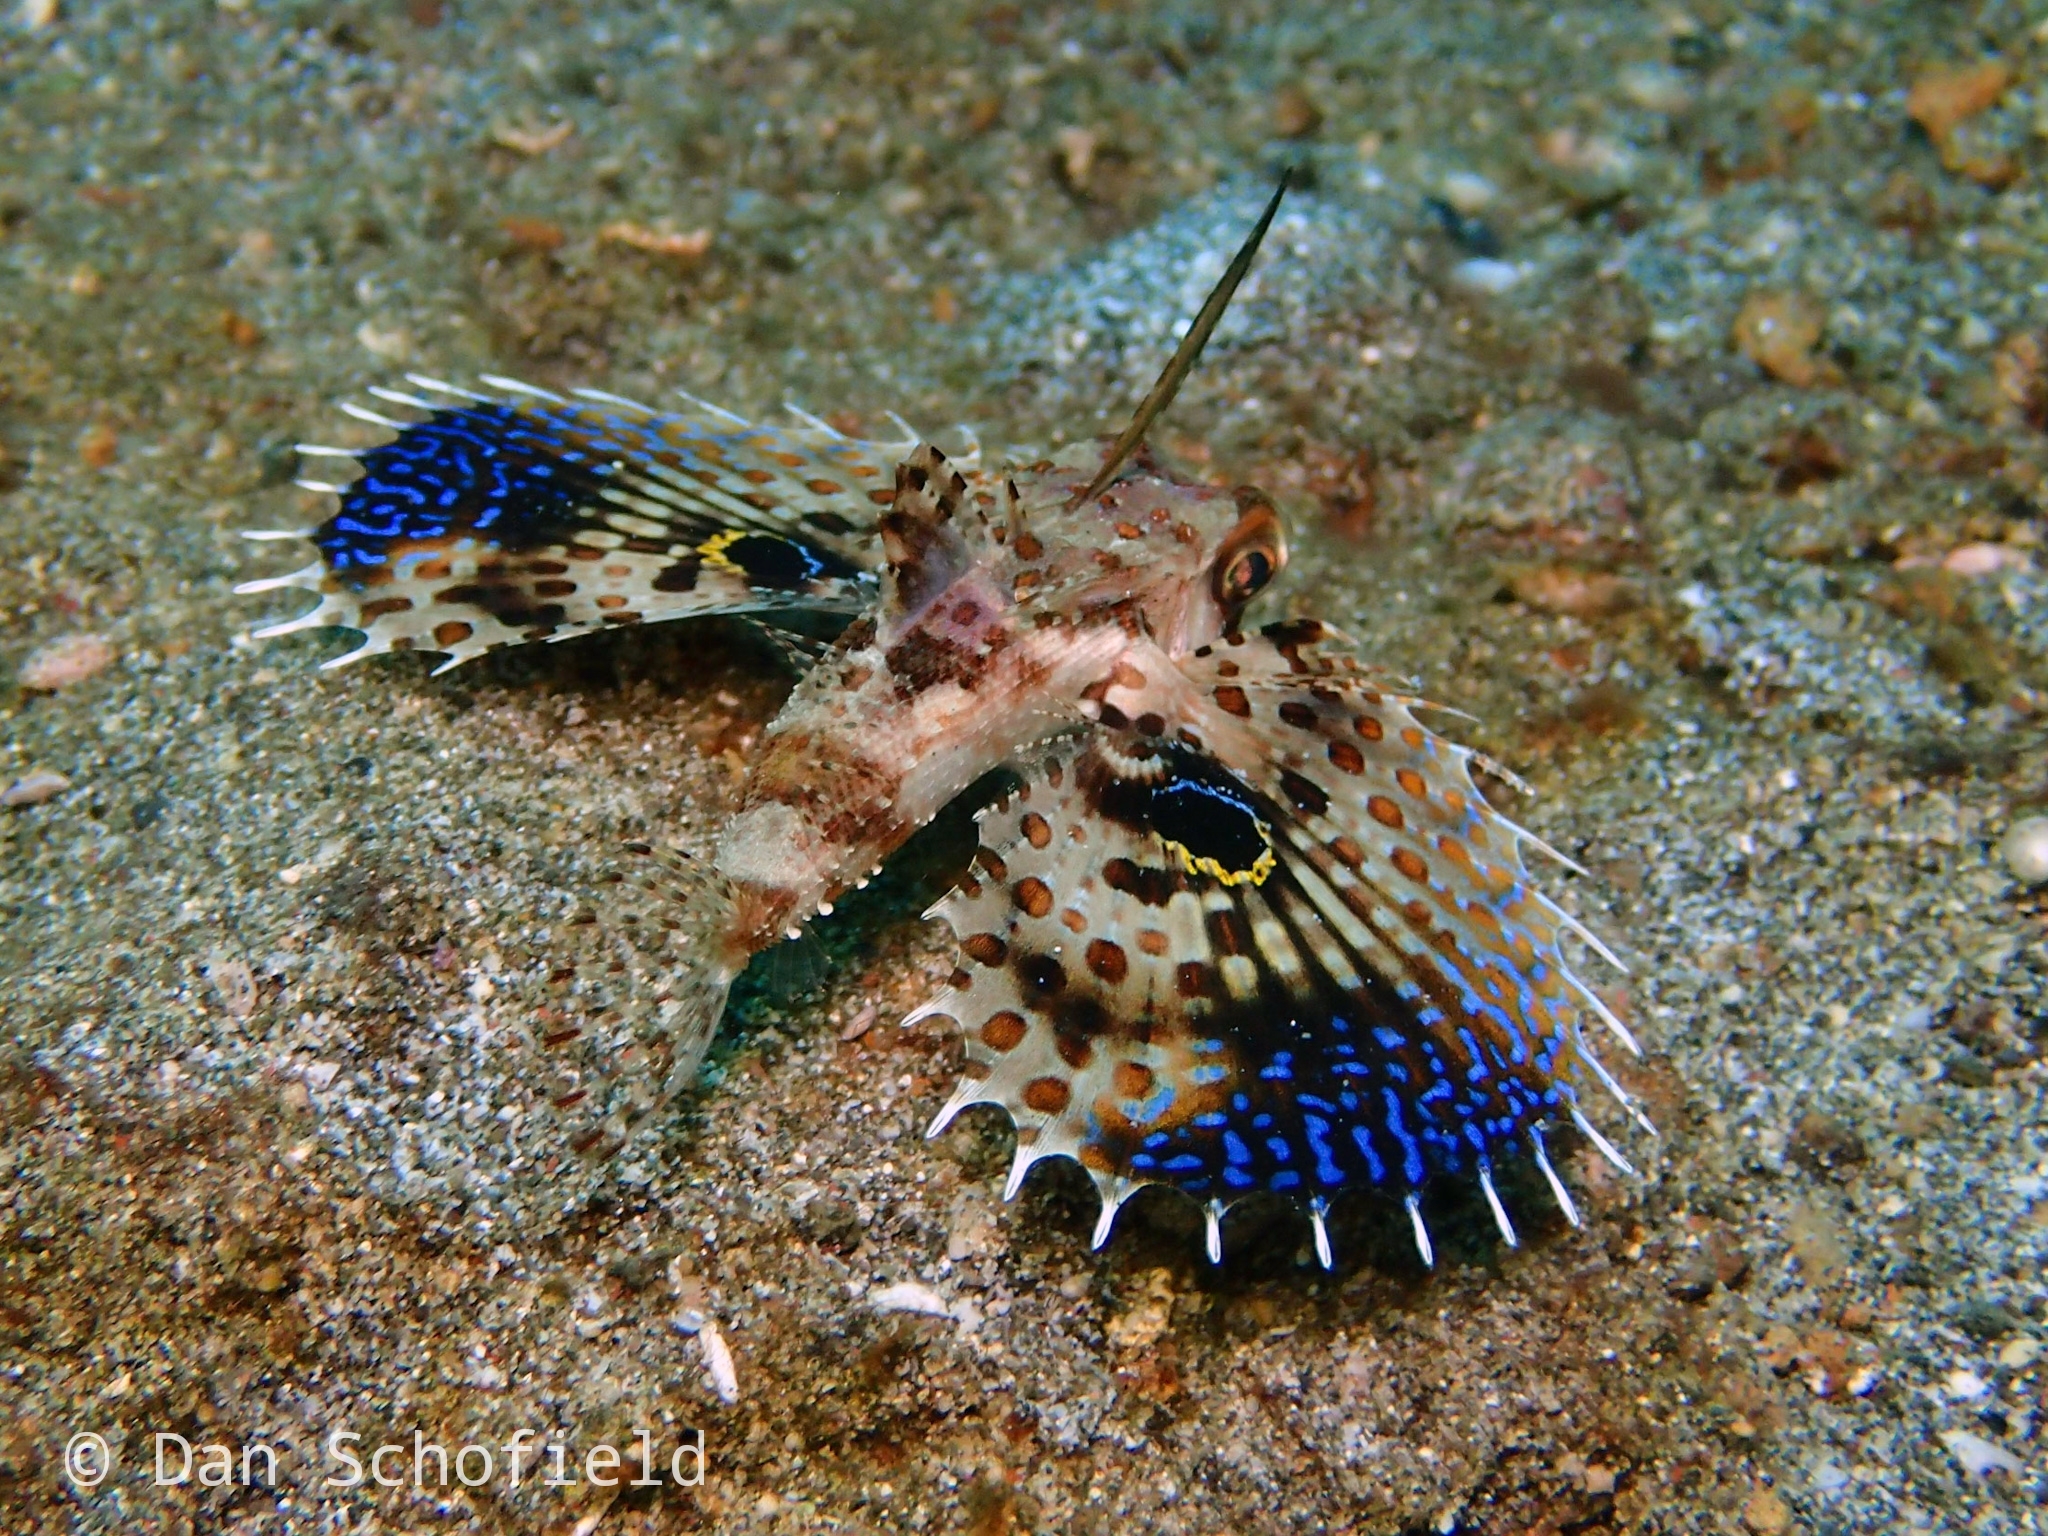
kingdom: Animalia
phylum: Chordata
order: Scorpaeniformes
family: Dactylopteridae
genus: Dactyloptena
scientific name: Dactyloptena orientalis
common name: Flying gurnard
